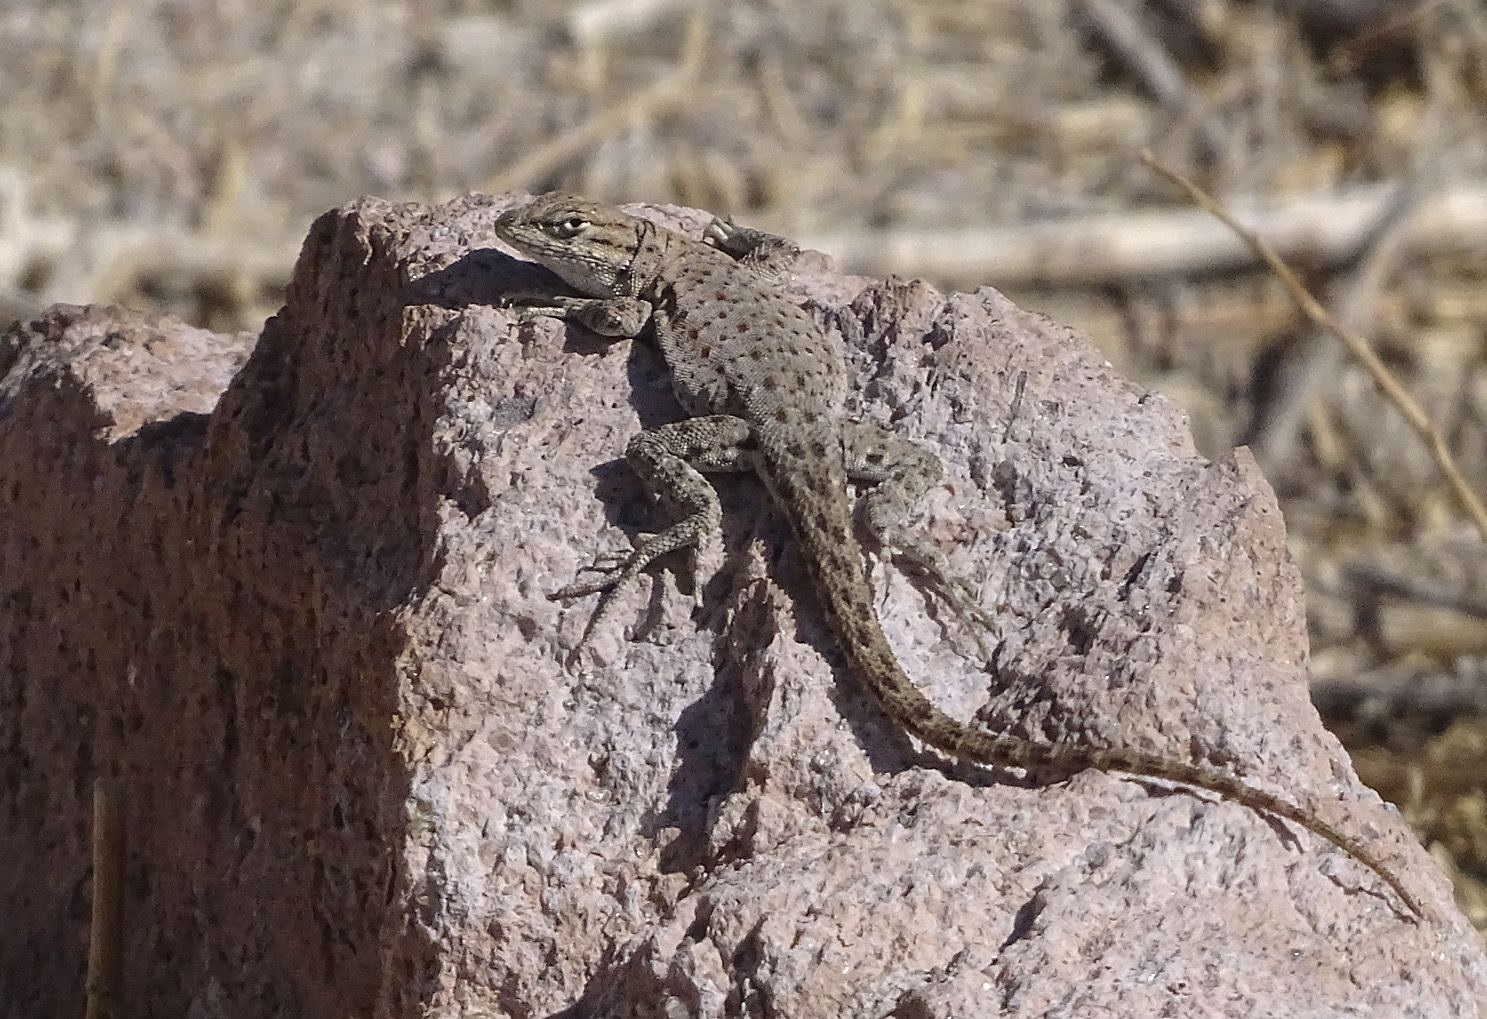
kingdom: Animalia
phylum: Chordata
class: Squamata
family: Phrynosomatidae
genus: Uta
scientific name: Uta stansburiana
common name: Side-blotched lizard
